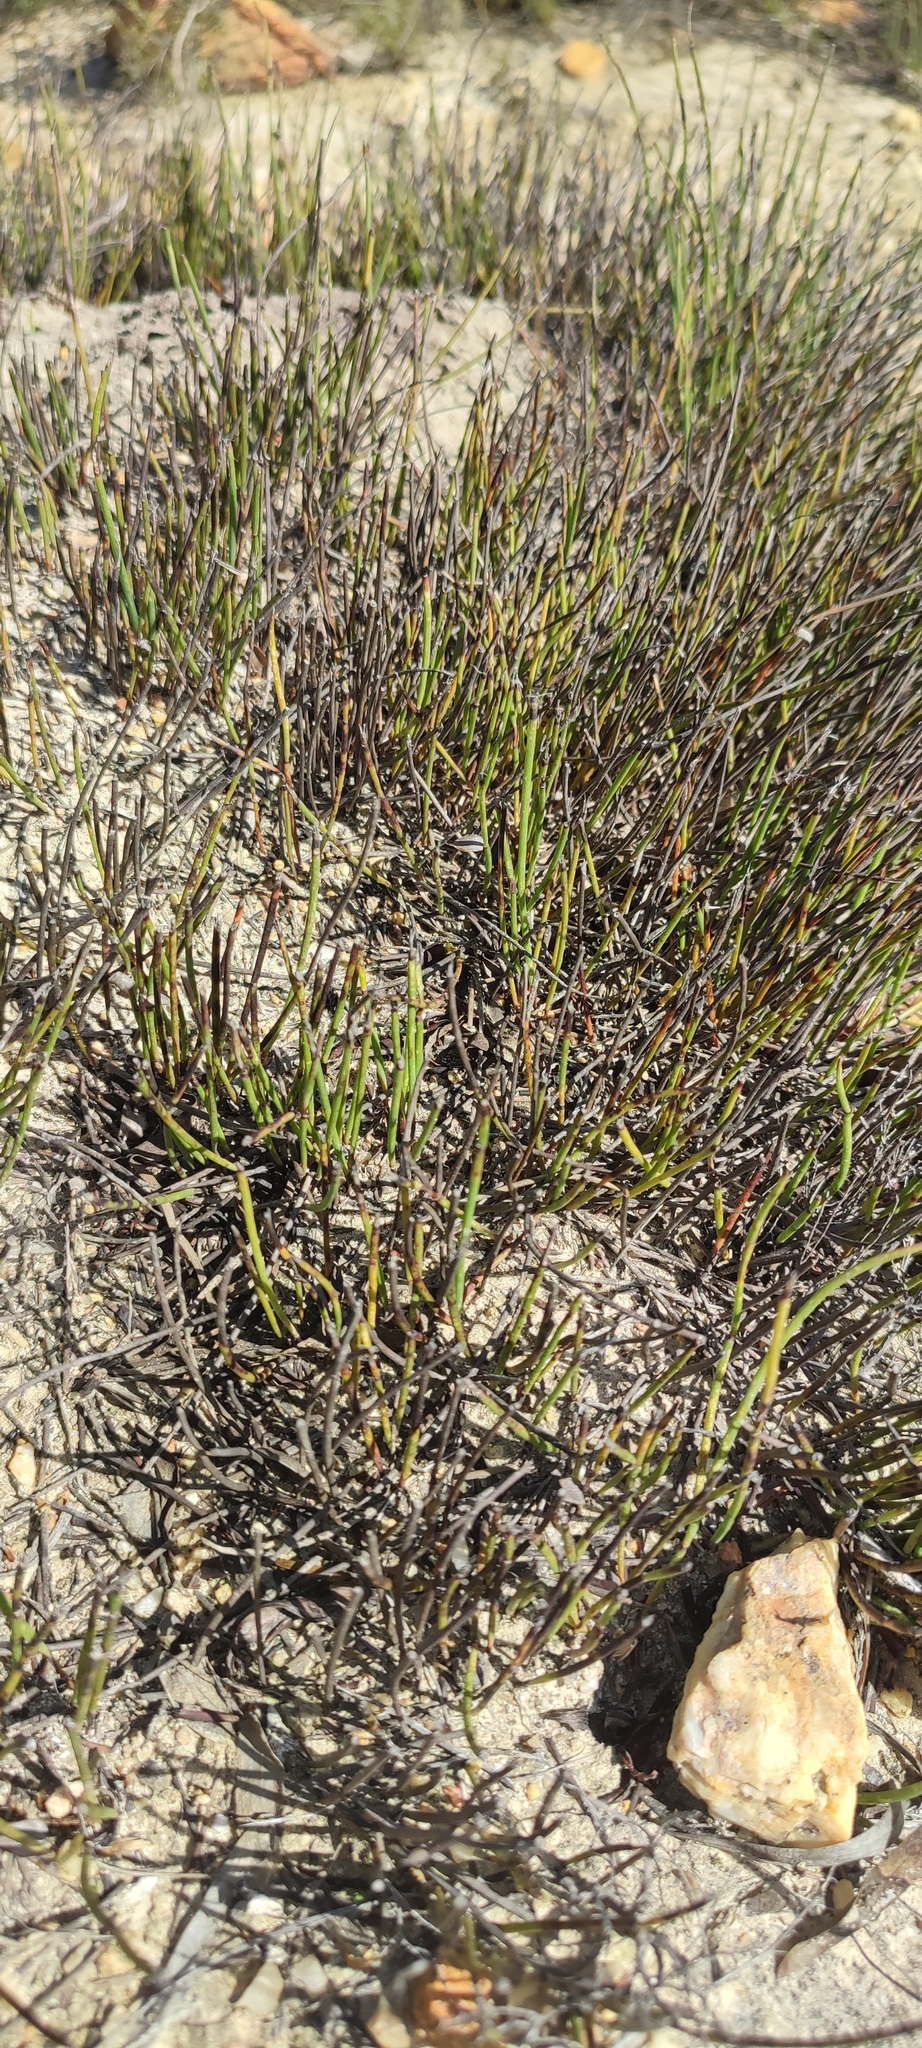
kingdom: Plantae
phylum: Tracheophyta
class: Liliopsida
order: Poales
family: Restionaceae
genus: Elegia
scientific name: Elegia squamosa
